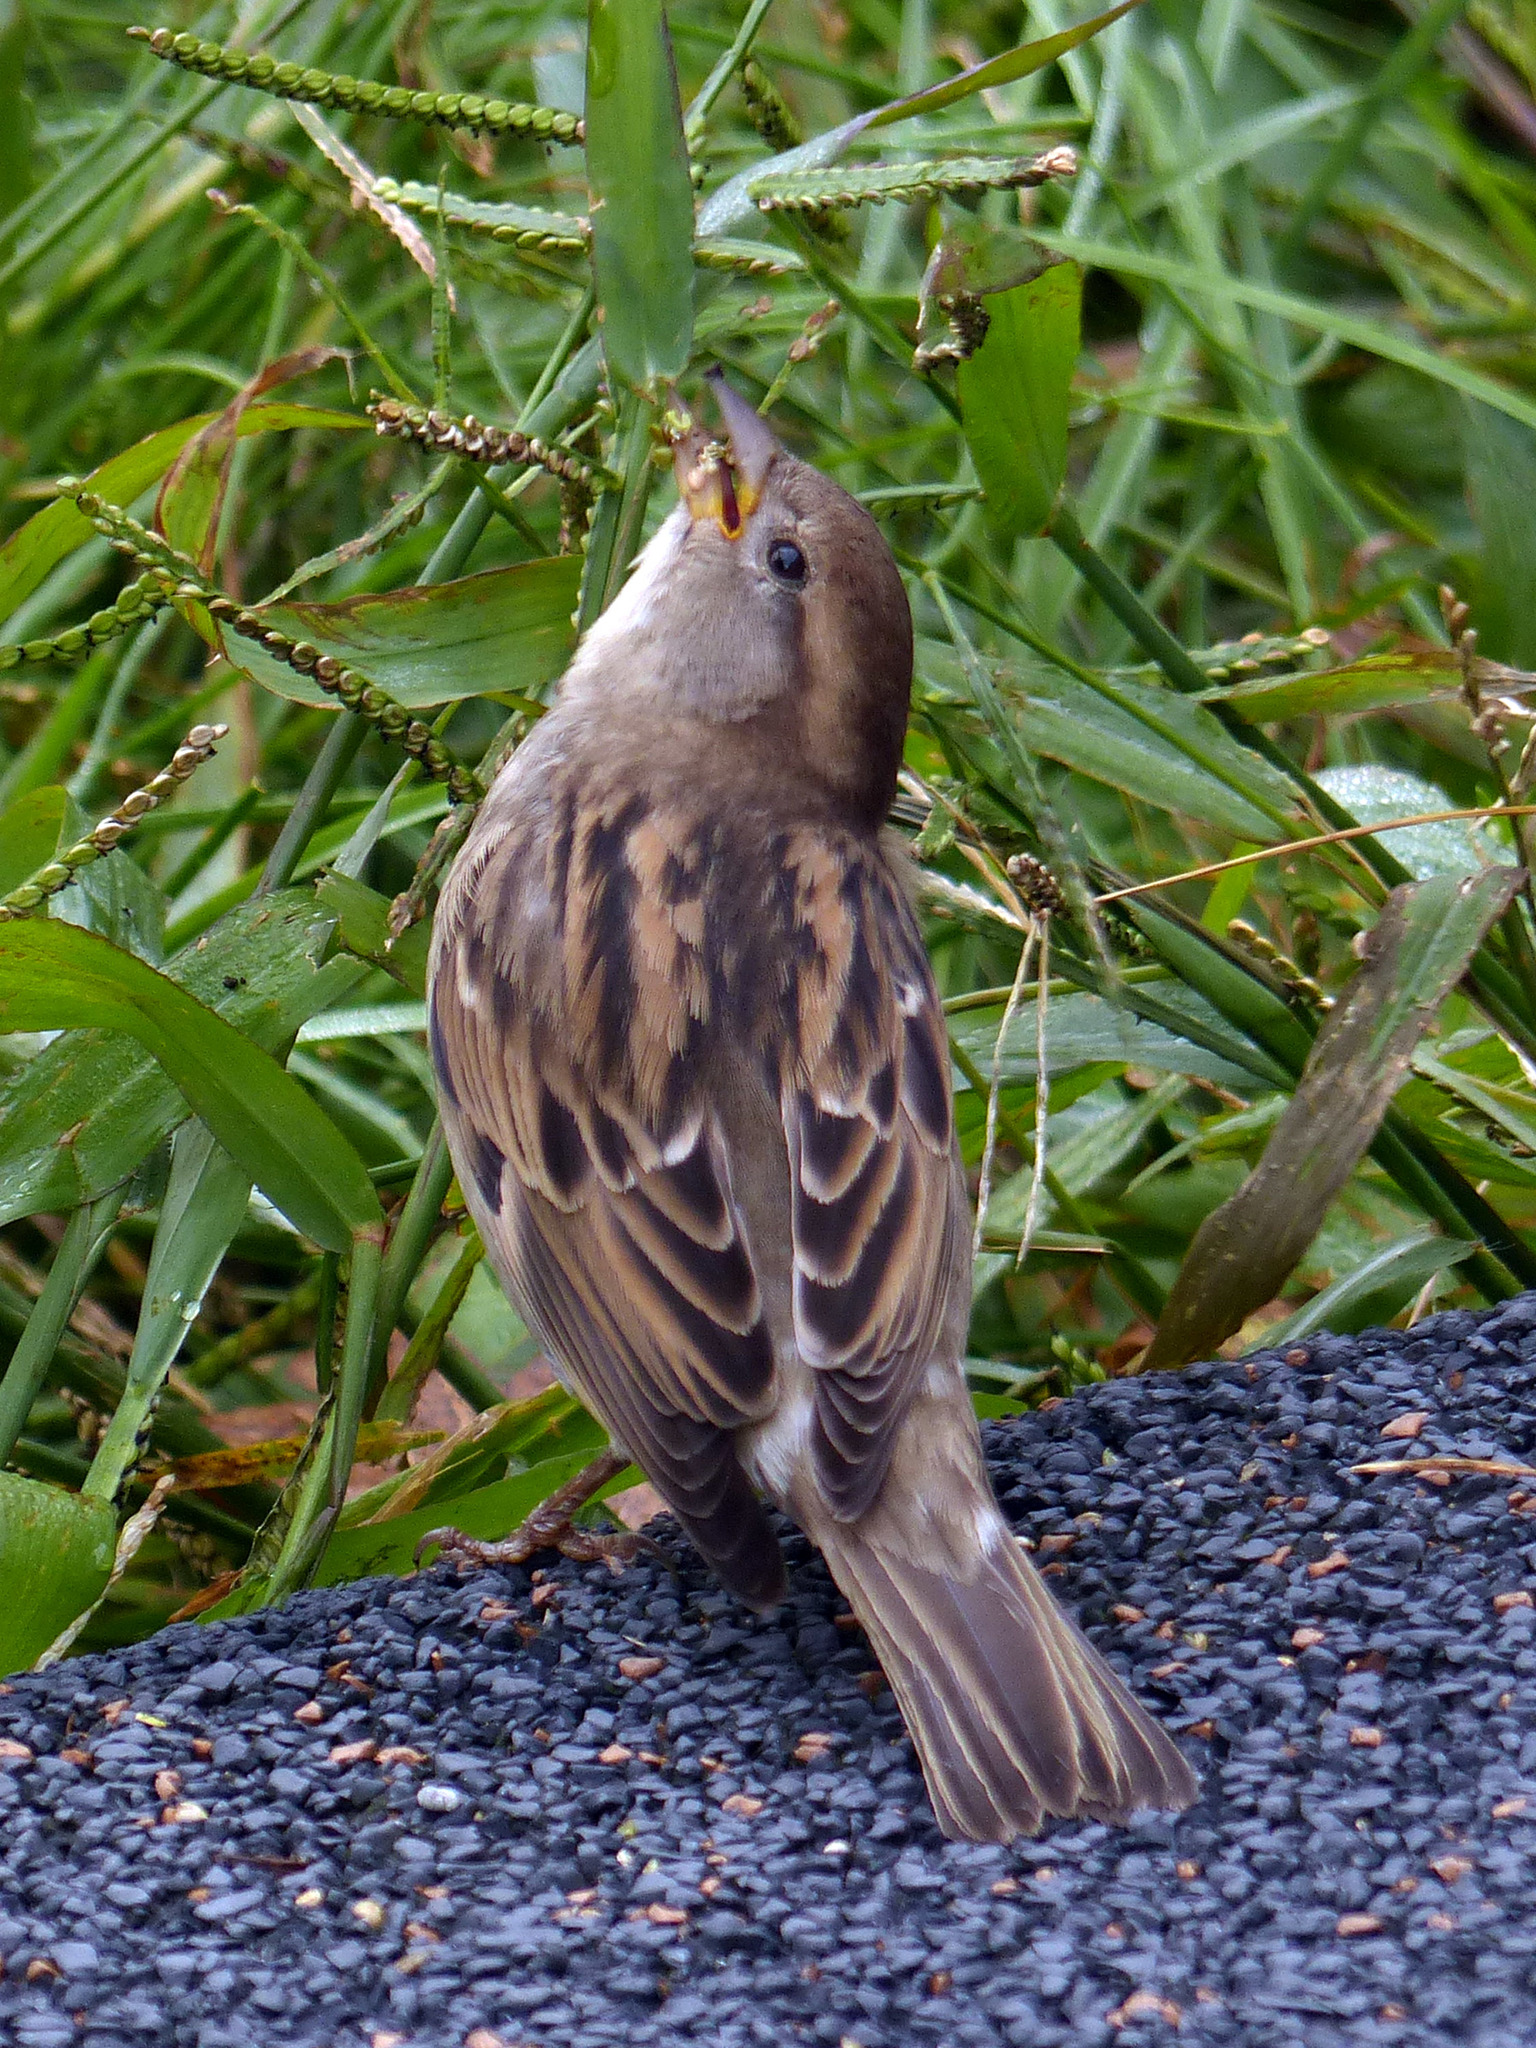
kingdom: Animalia
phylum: Chordata
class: Aves
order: Passeriformes
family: Passeridae
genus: Passer
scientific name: Passer domesticus
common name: House sparrow
